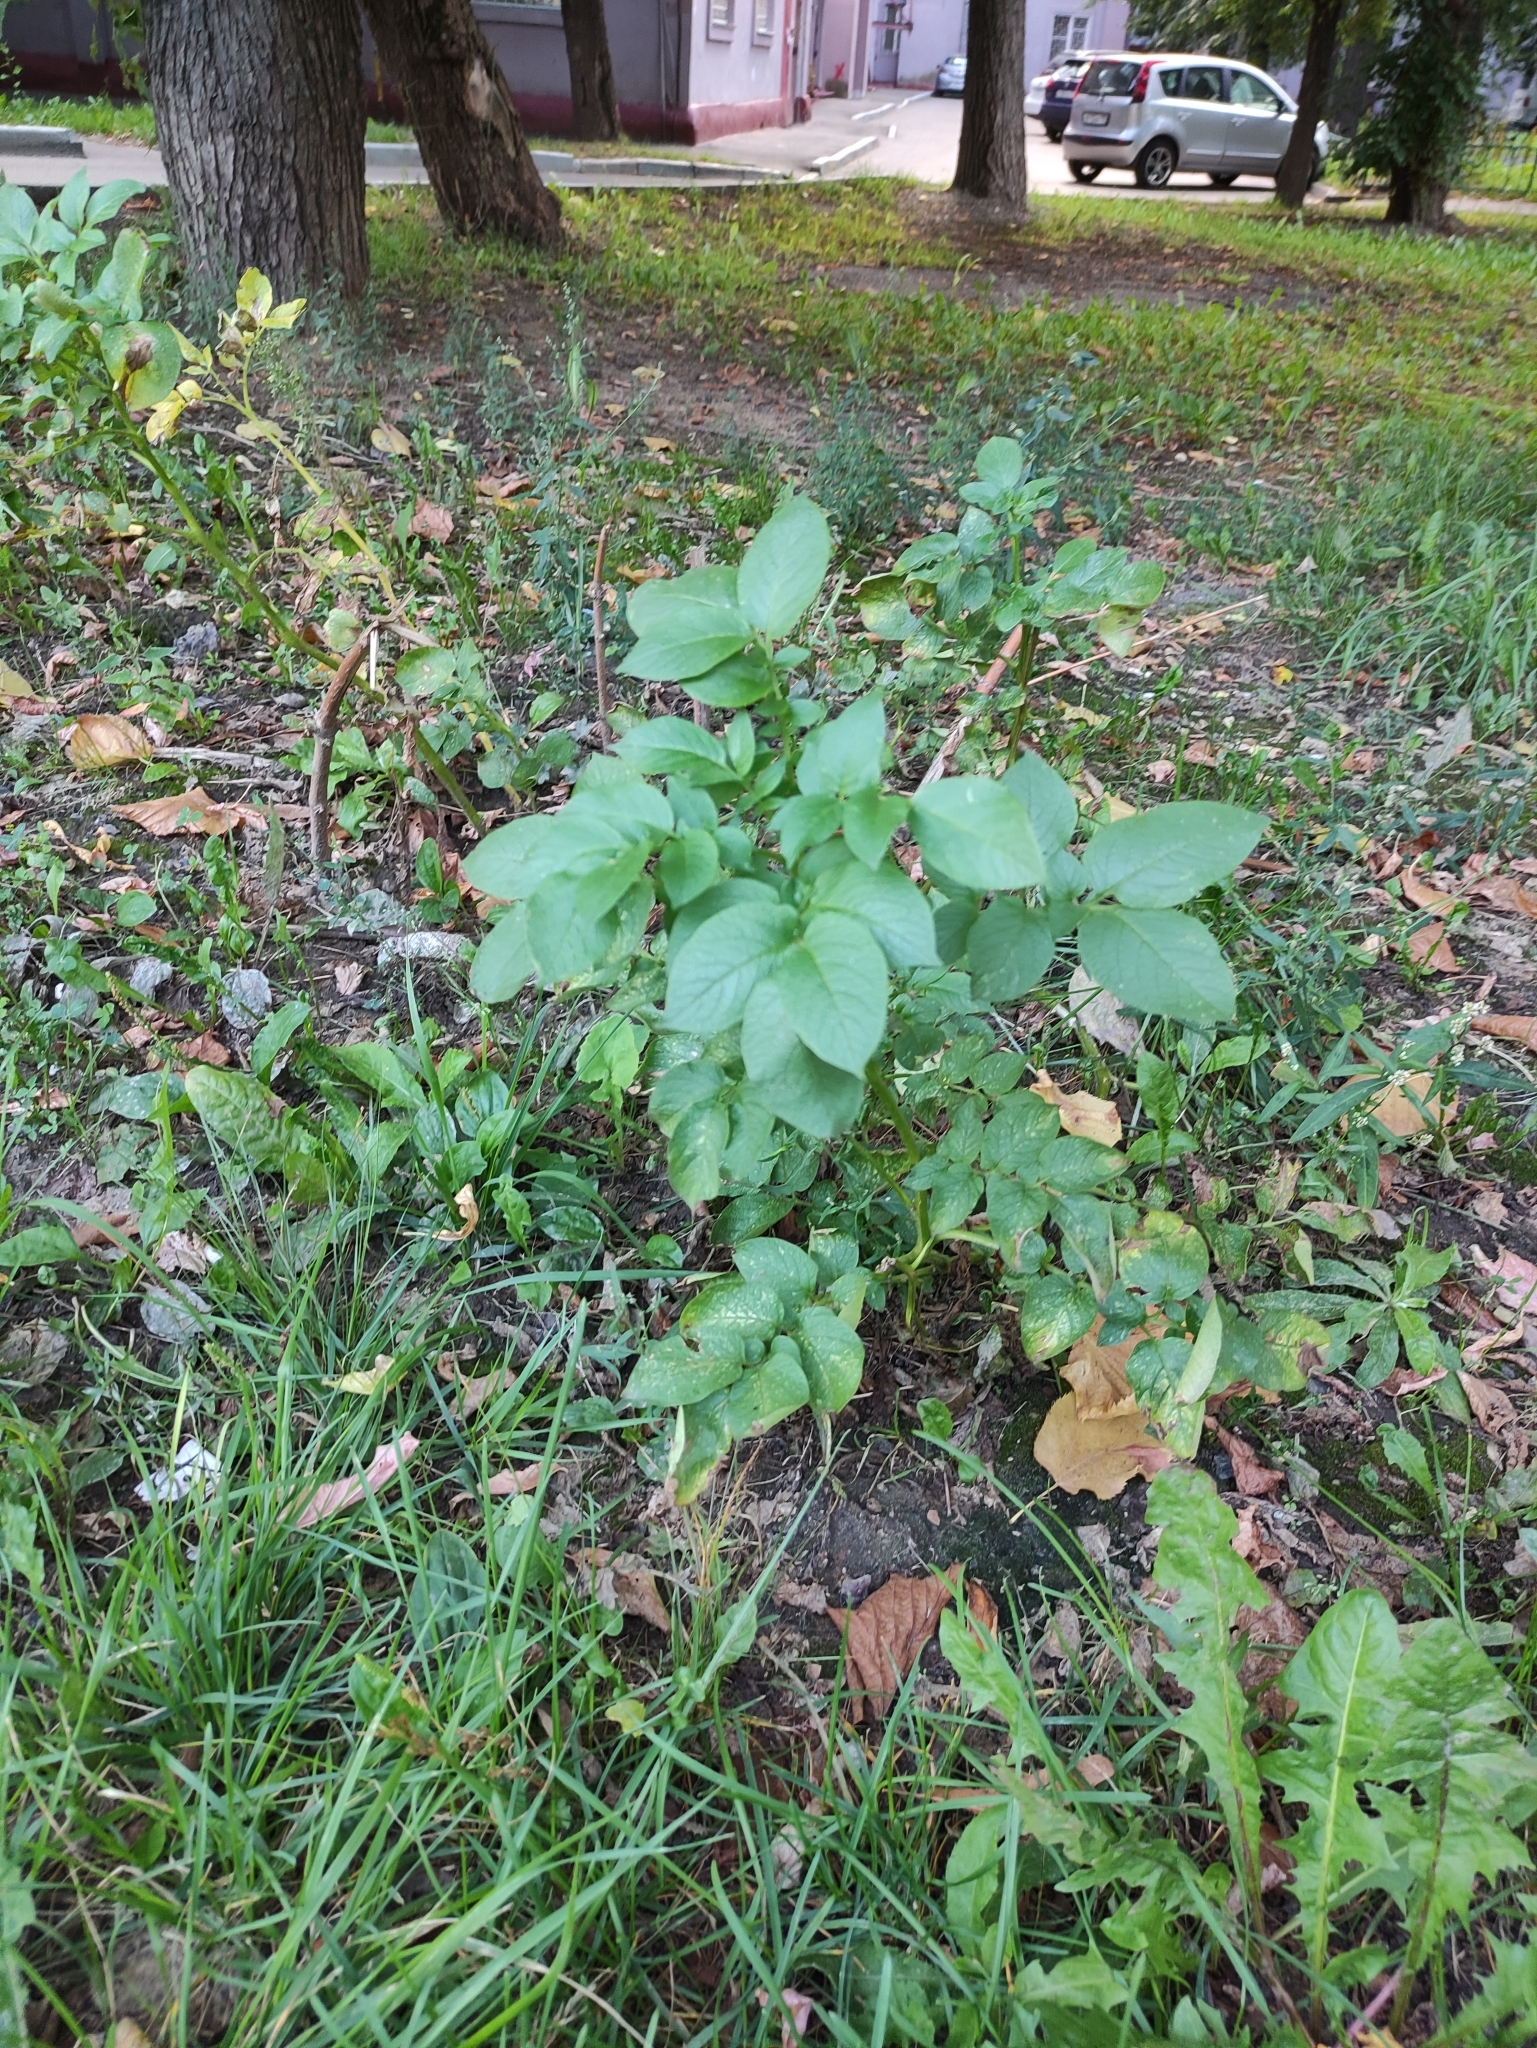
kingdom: Plantae
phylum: Tracheophyta
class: Magnoliopsida
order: Solanales
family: Solanaceae
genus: Solanum
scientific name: Solanum tuberosum
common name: Potato
